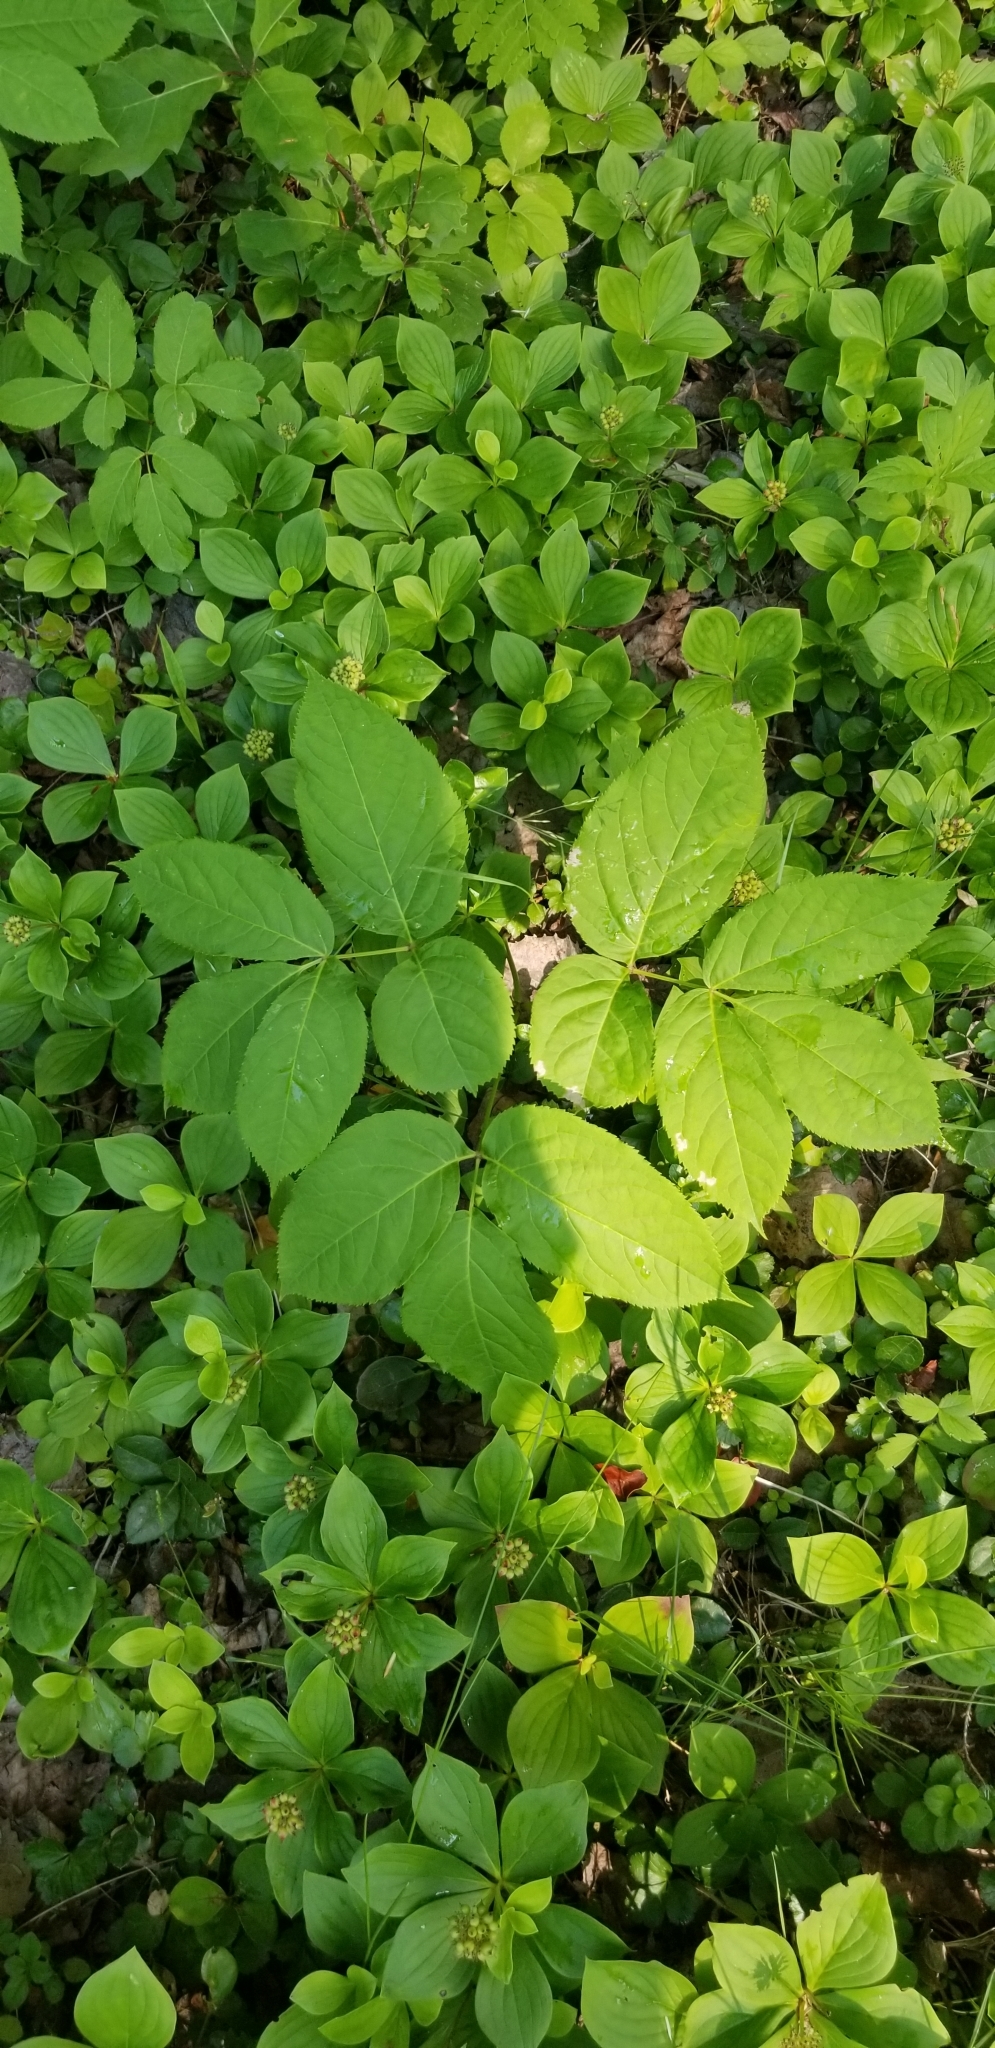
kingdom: Plantae
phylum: Tracheophyta
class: Magnoliopsida
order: Cornales
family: Cornaceae
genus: Cornus
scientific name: Cornus canadensis
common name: Creeping dogwood
